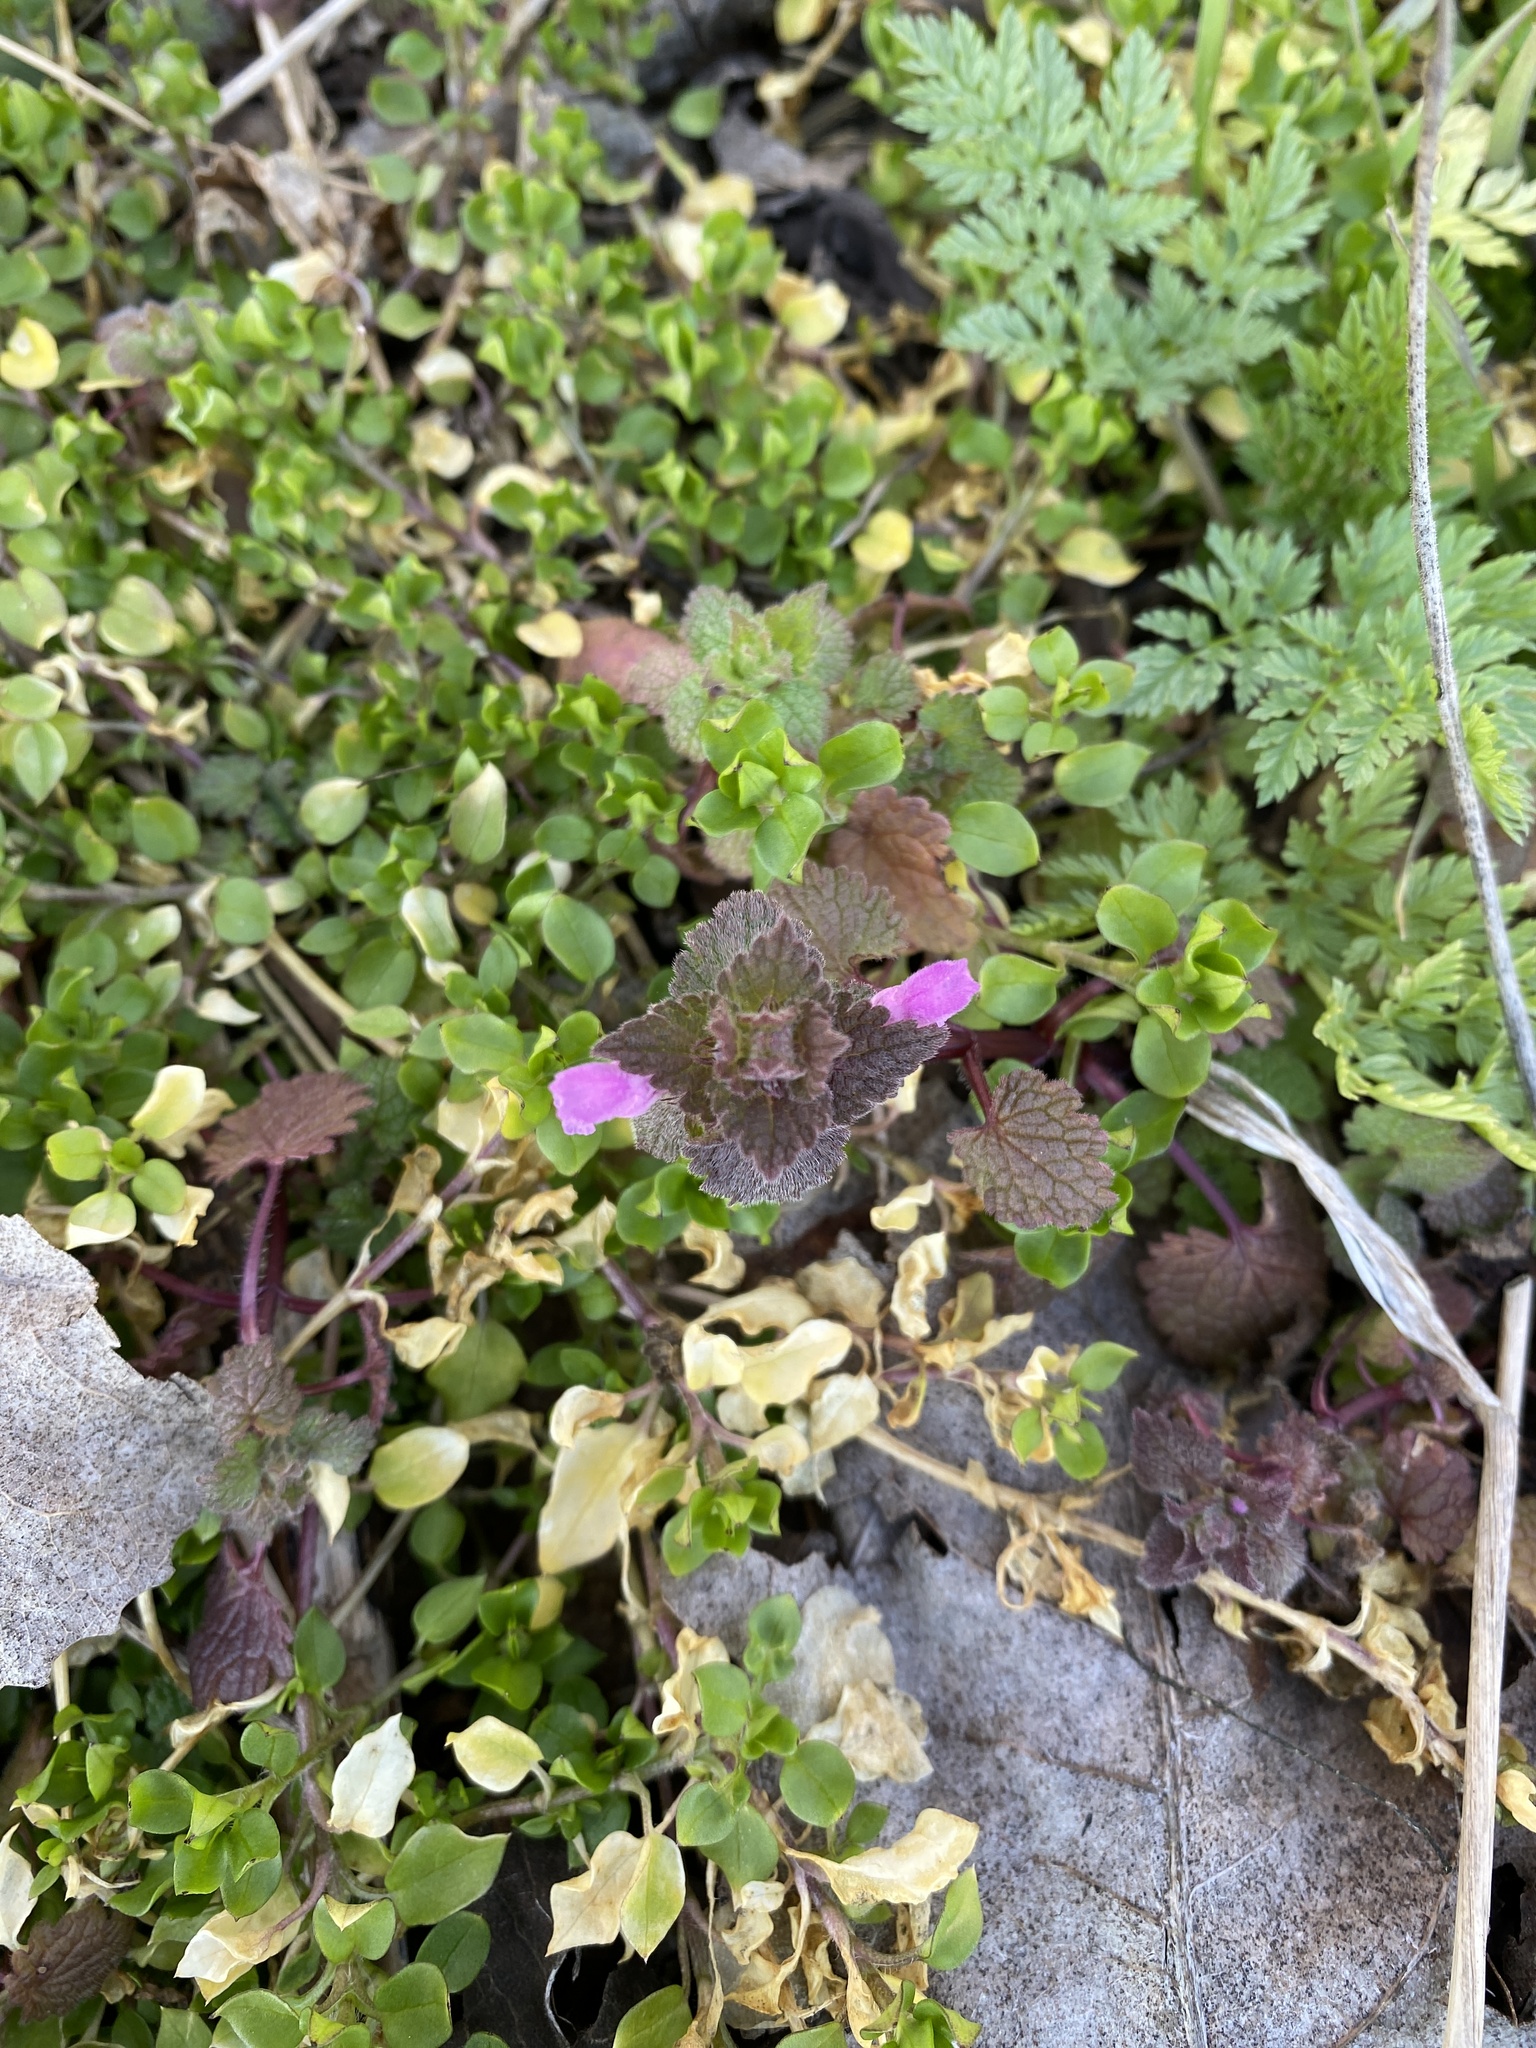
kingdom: Plantae
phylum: Tracheophyta
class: Magnoliopsida
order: Lamiales
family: Lamiaceae
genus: Lamium
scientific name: Lamium purpureum
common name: Red dead-nettle
